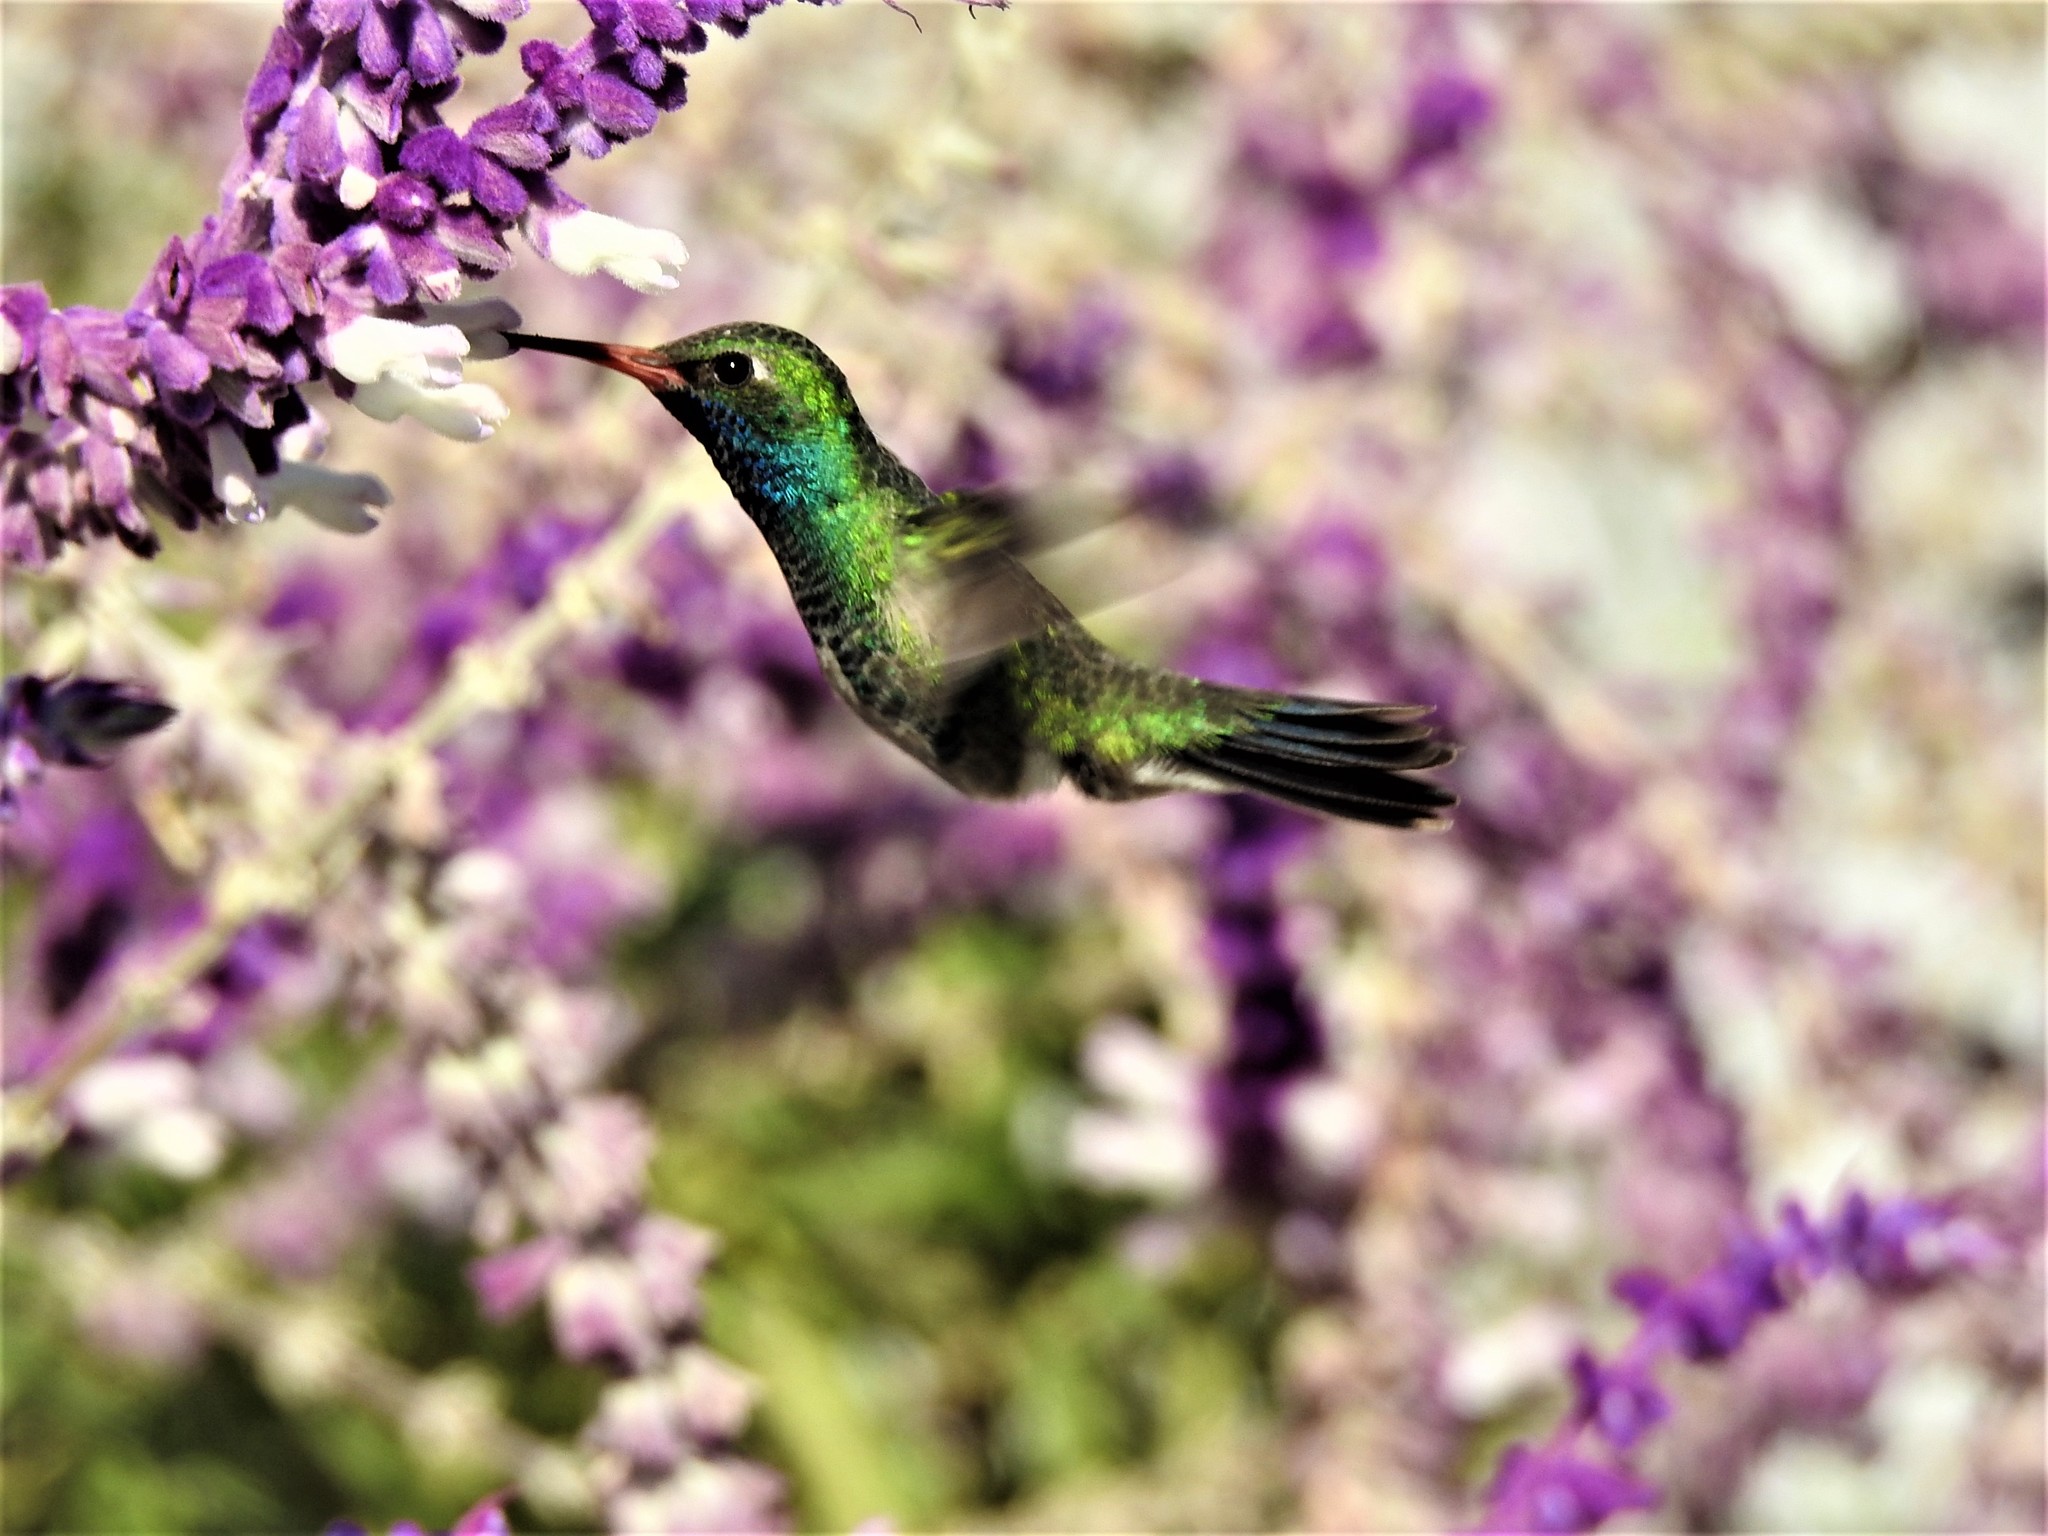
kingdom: Animalia
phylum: Chordata
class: Aves
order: Apodiformes
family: Trochilidae
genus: Cynanthus
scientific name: Cynanthus latirostris
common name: Broad-billed hummingbird
